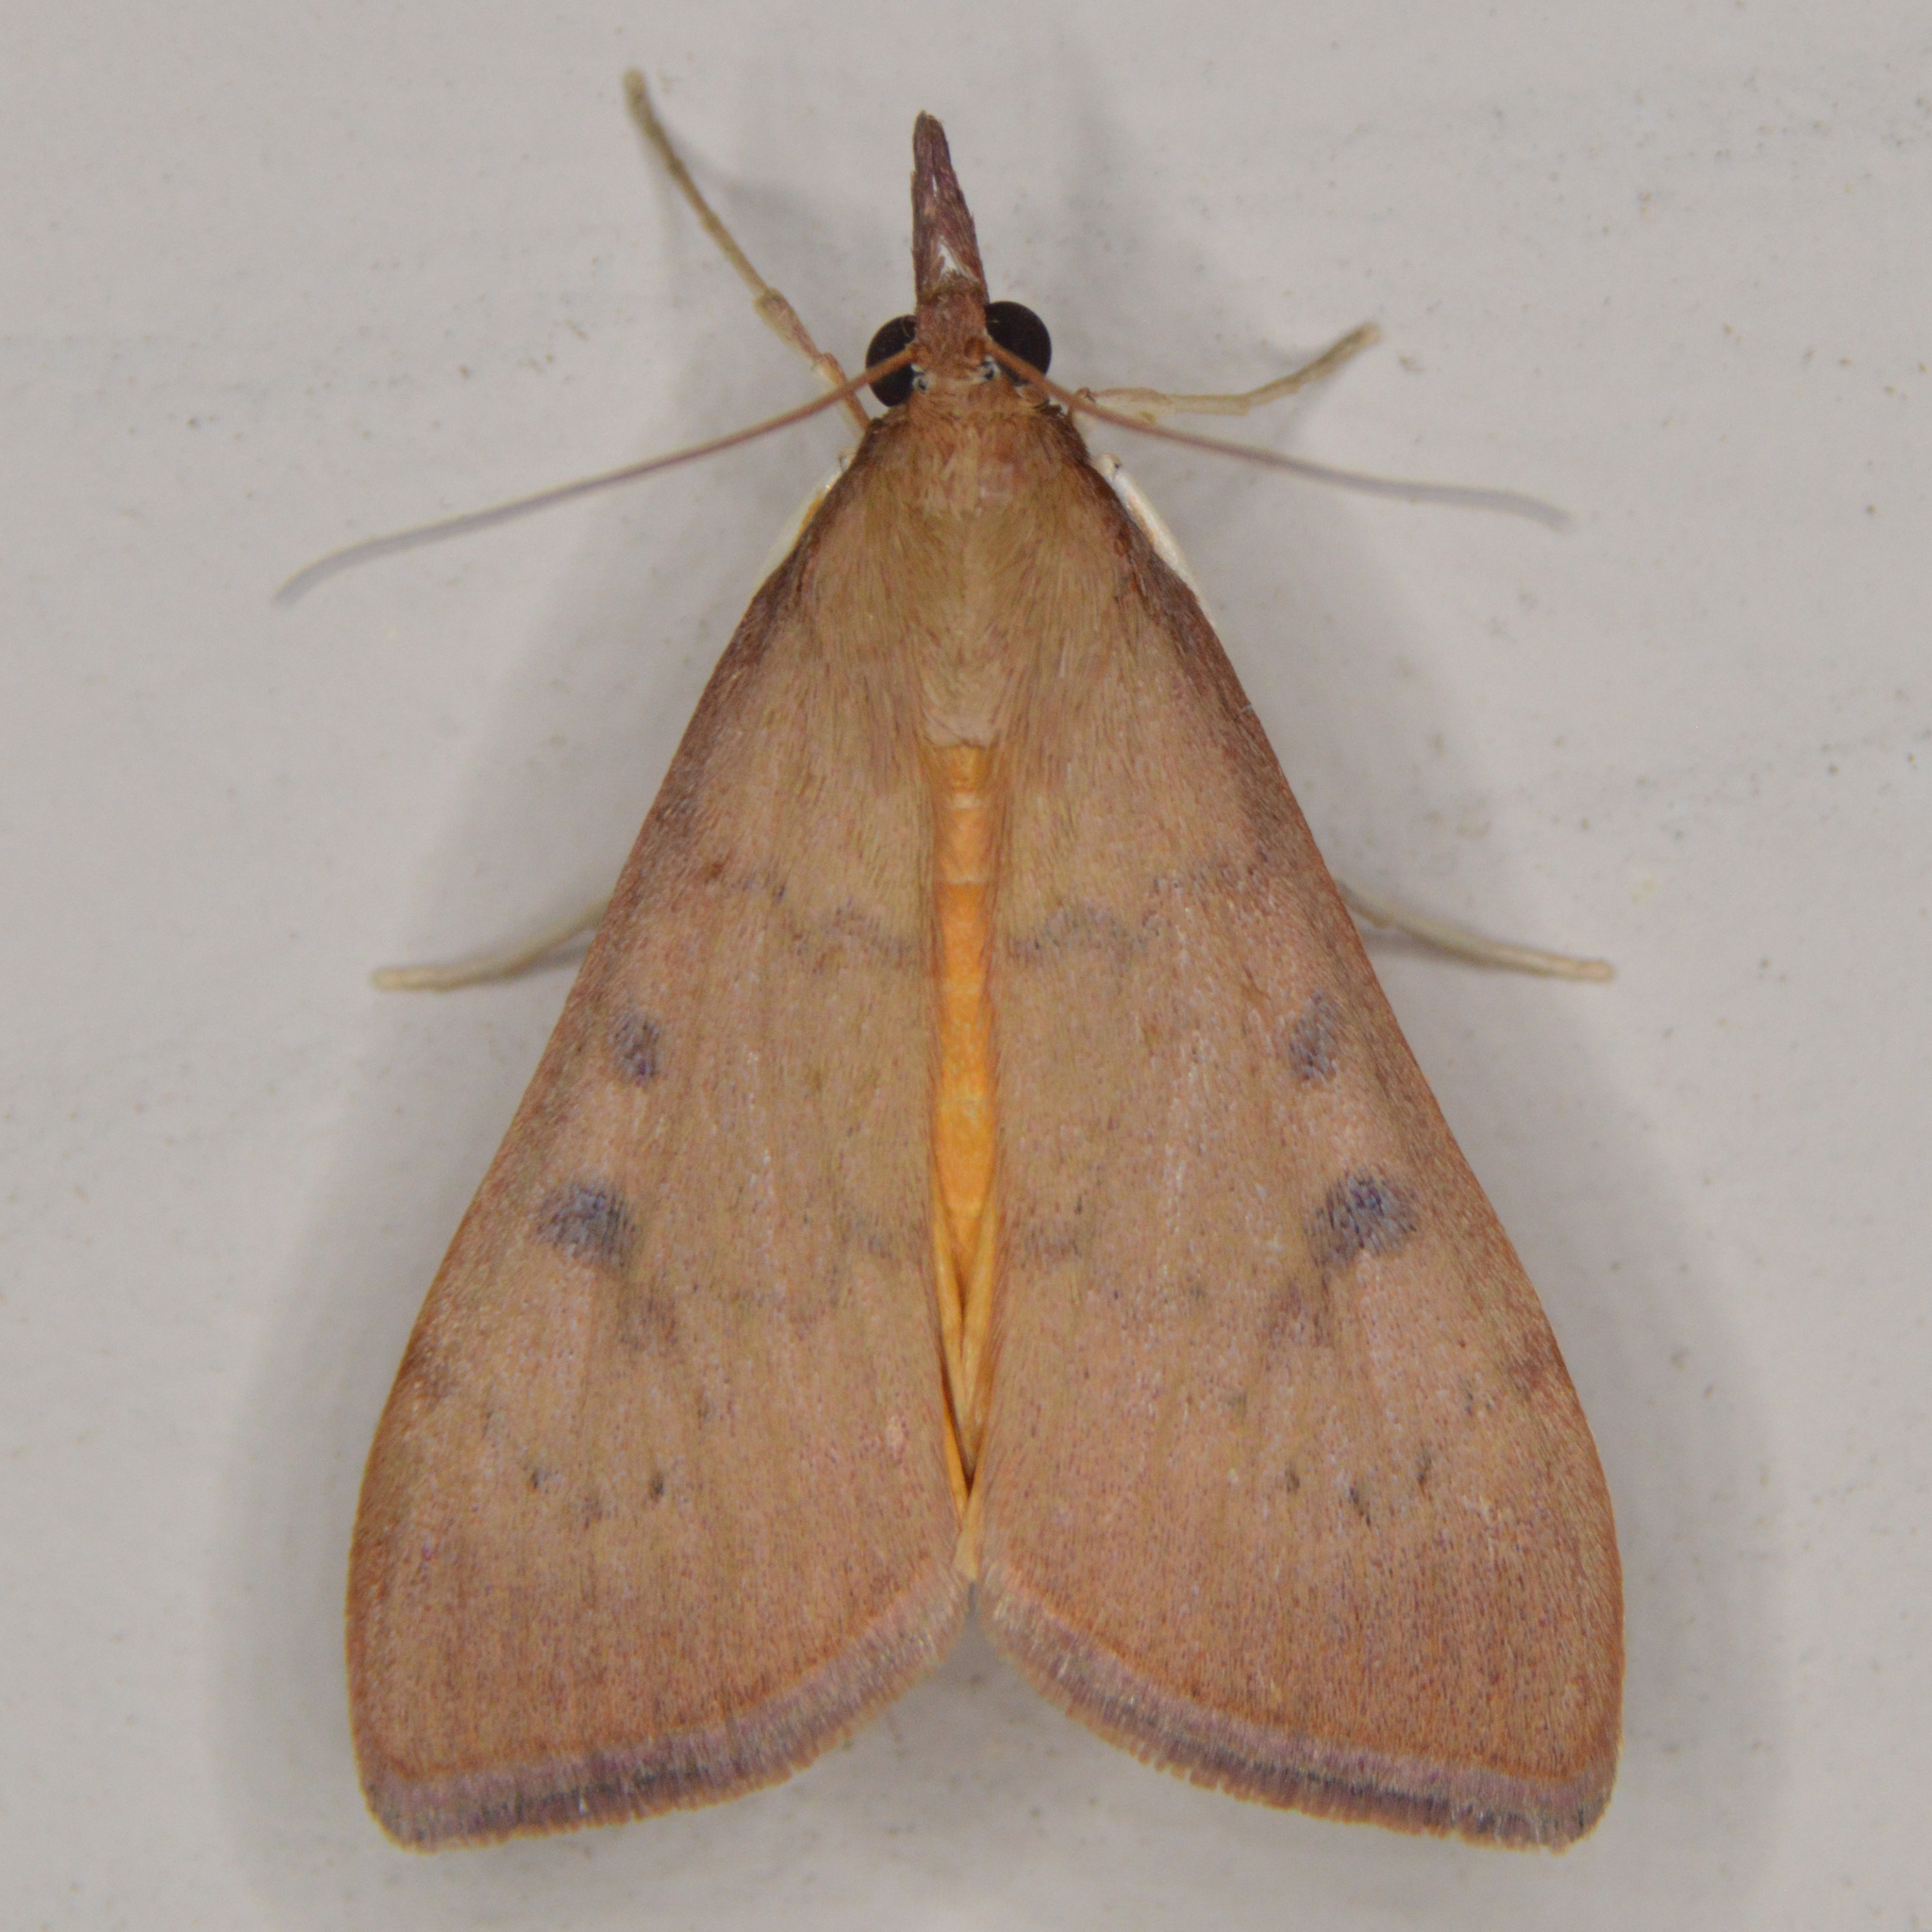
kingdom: Animalia
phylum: Arthropoda
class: Insecta
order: Lepidoptera
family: Crambidae
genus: Uresiphita
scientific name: Uresiphita reversalis
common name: Genista broom moth
